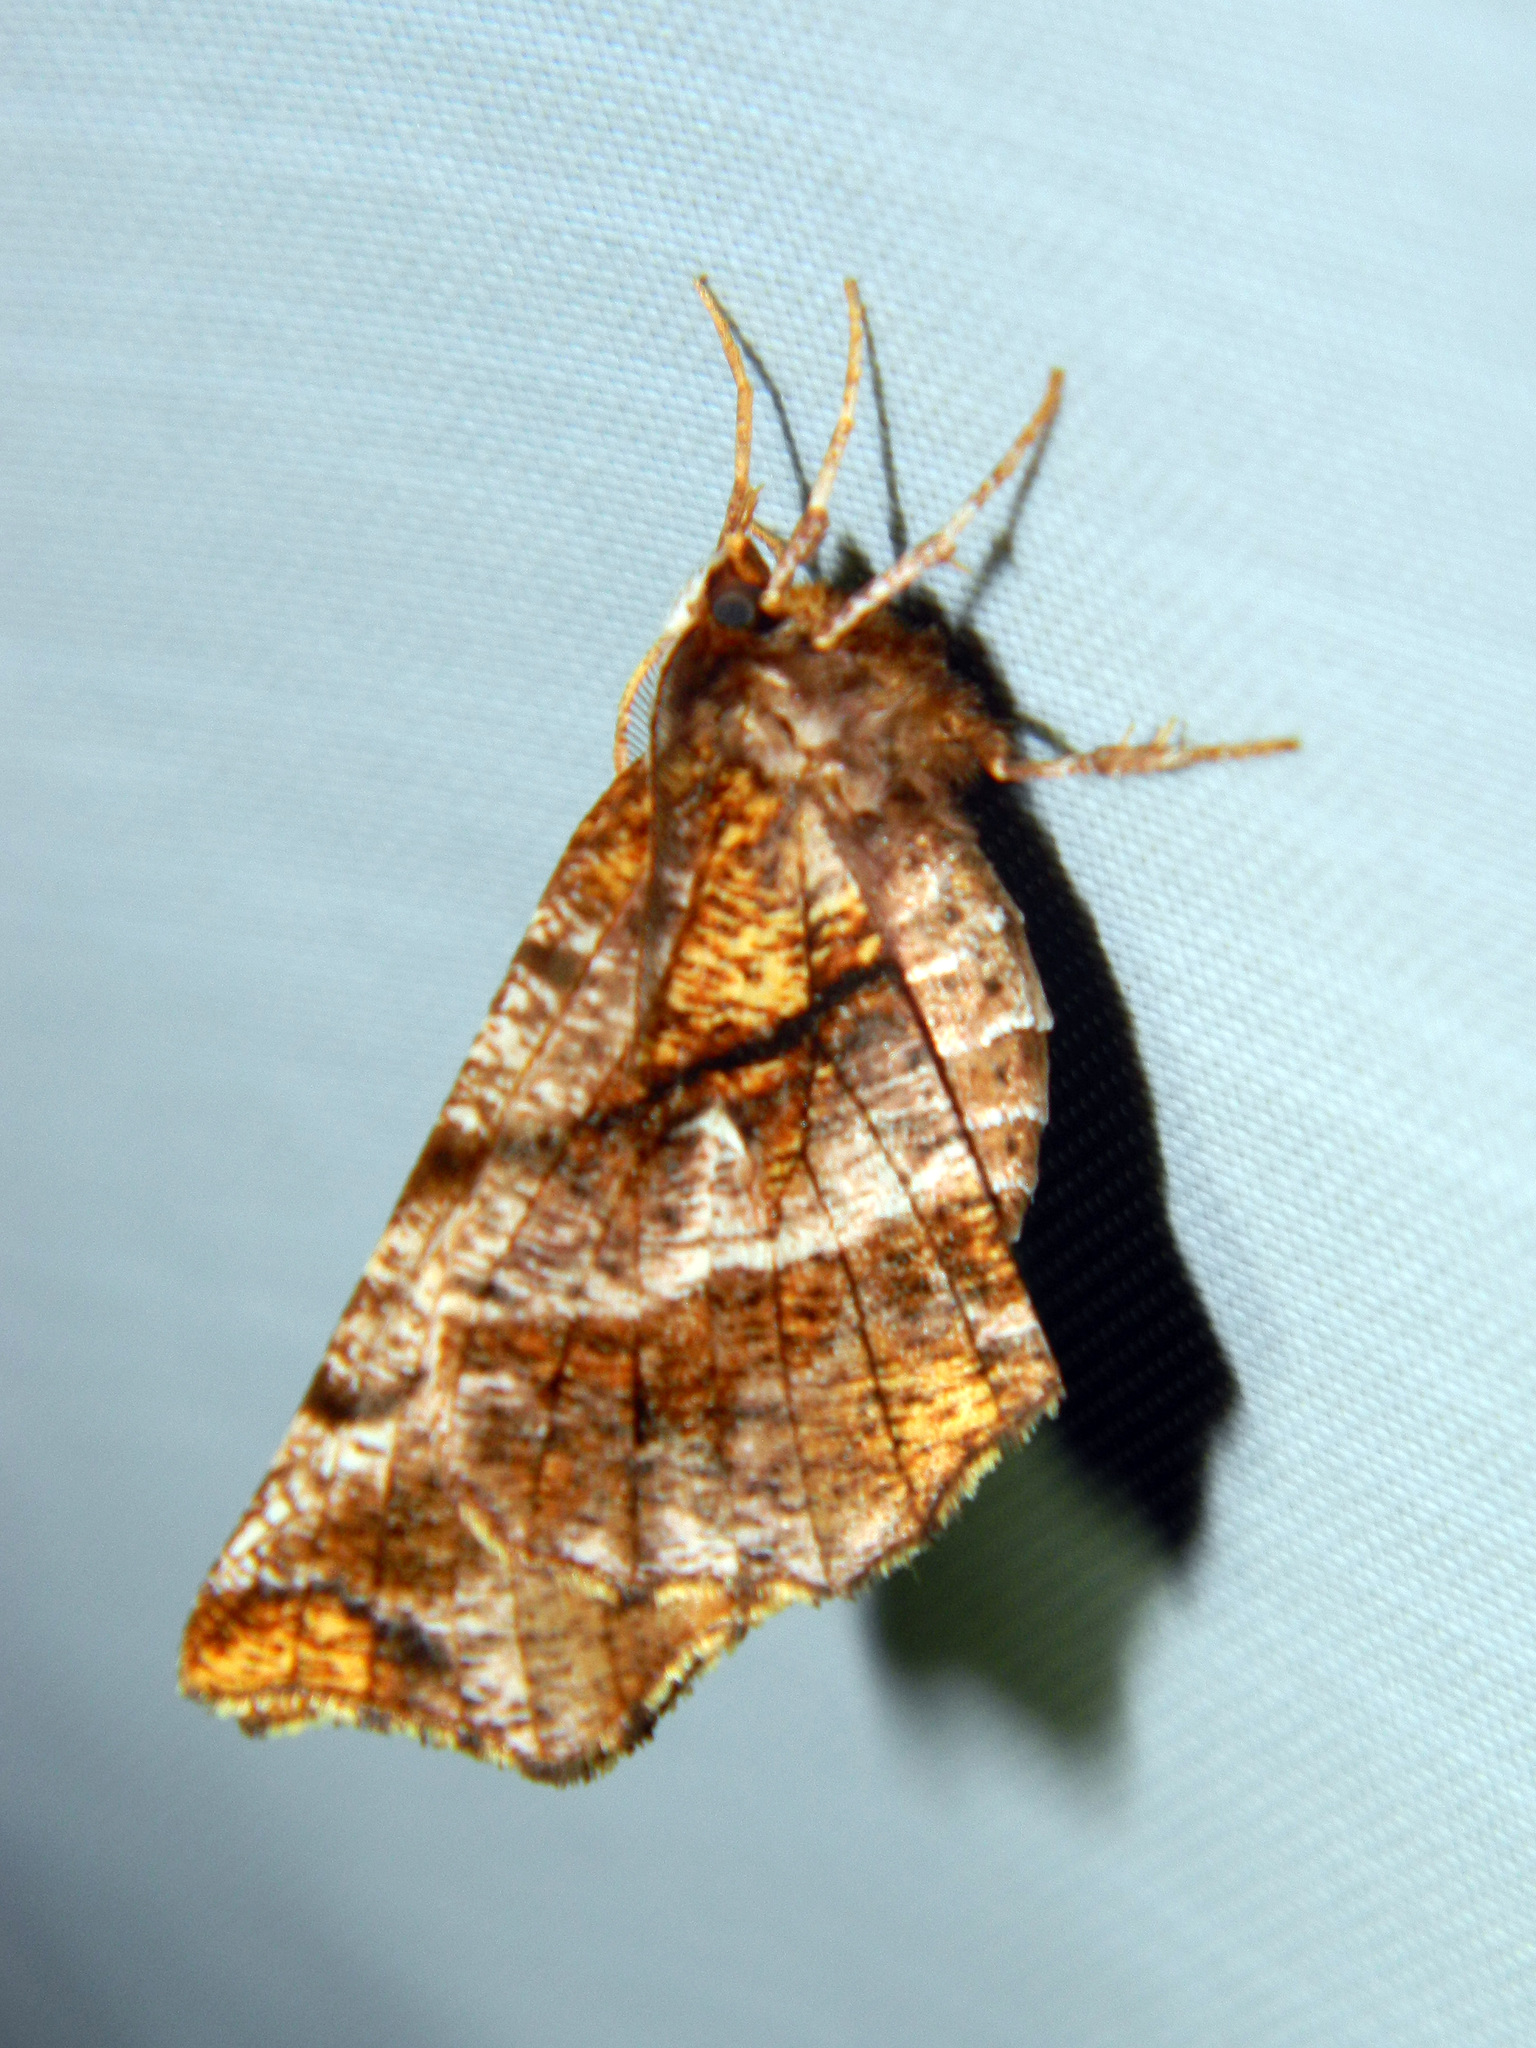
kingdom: Animalia
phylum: Arthropoda
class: Insecta
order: Lepidoptera
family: Geometridae
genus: Selenia
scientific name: Selenia alciphearia
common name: Brown-tipped thorn
